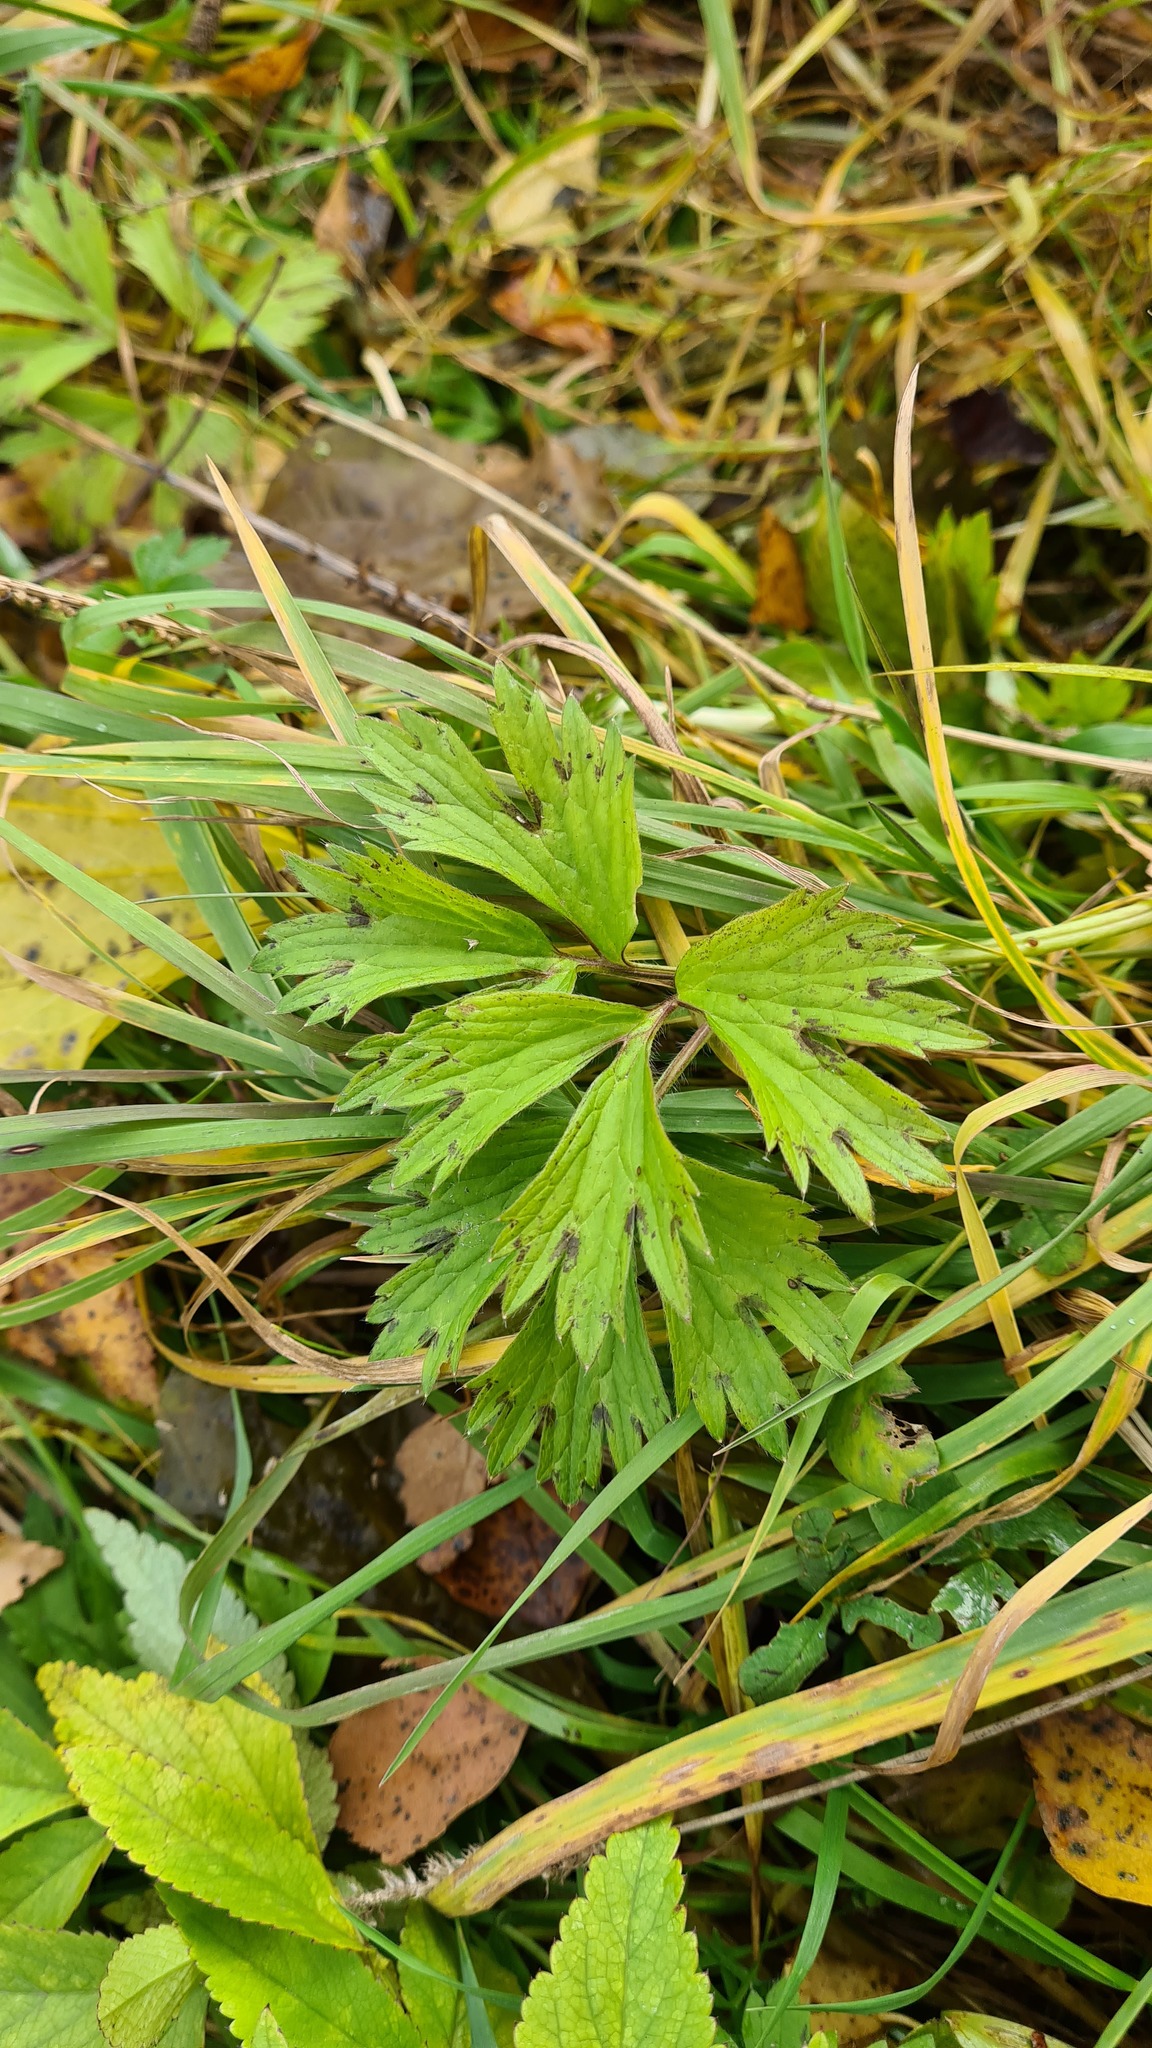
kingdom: Plantae
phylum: Tracheophyta
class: Magnoliopsida
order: Ranunculales
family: Ranunculaceae
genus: Ranunculus
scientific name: Ranunculus repens
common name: Creeping buttercup
